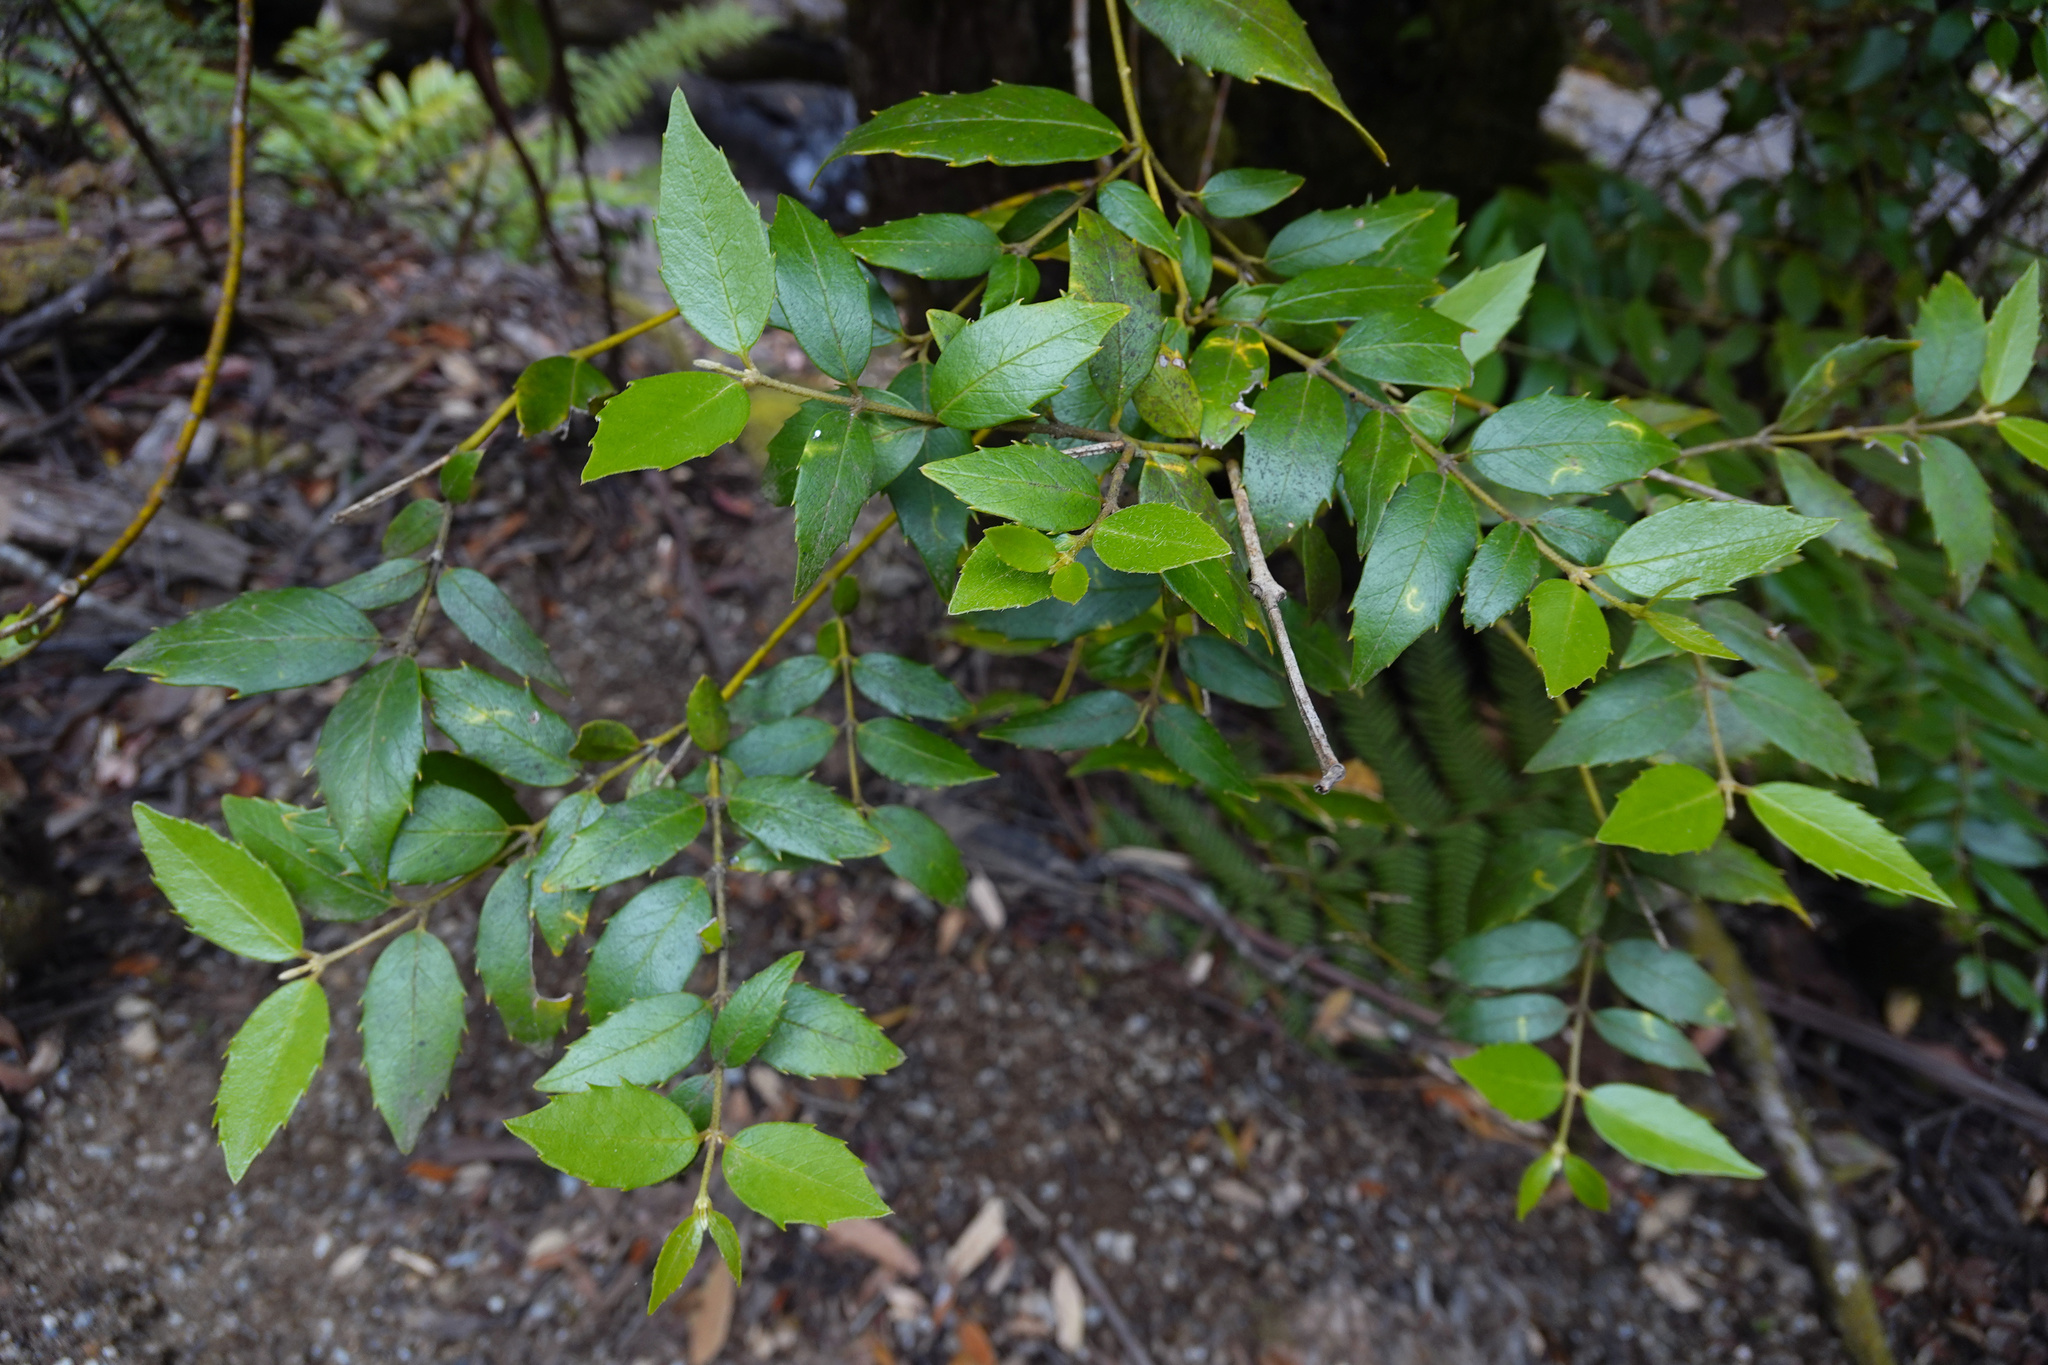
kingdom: Plantae
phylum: Tracheophyta
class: Magnoliopsida
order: Laurales
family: Atherospermataceae
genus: Atherosperma
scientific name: Atherosperma moschatum
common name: Tasmanian-sassafras
